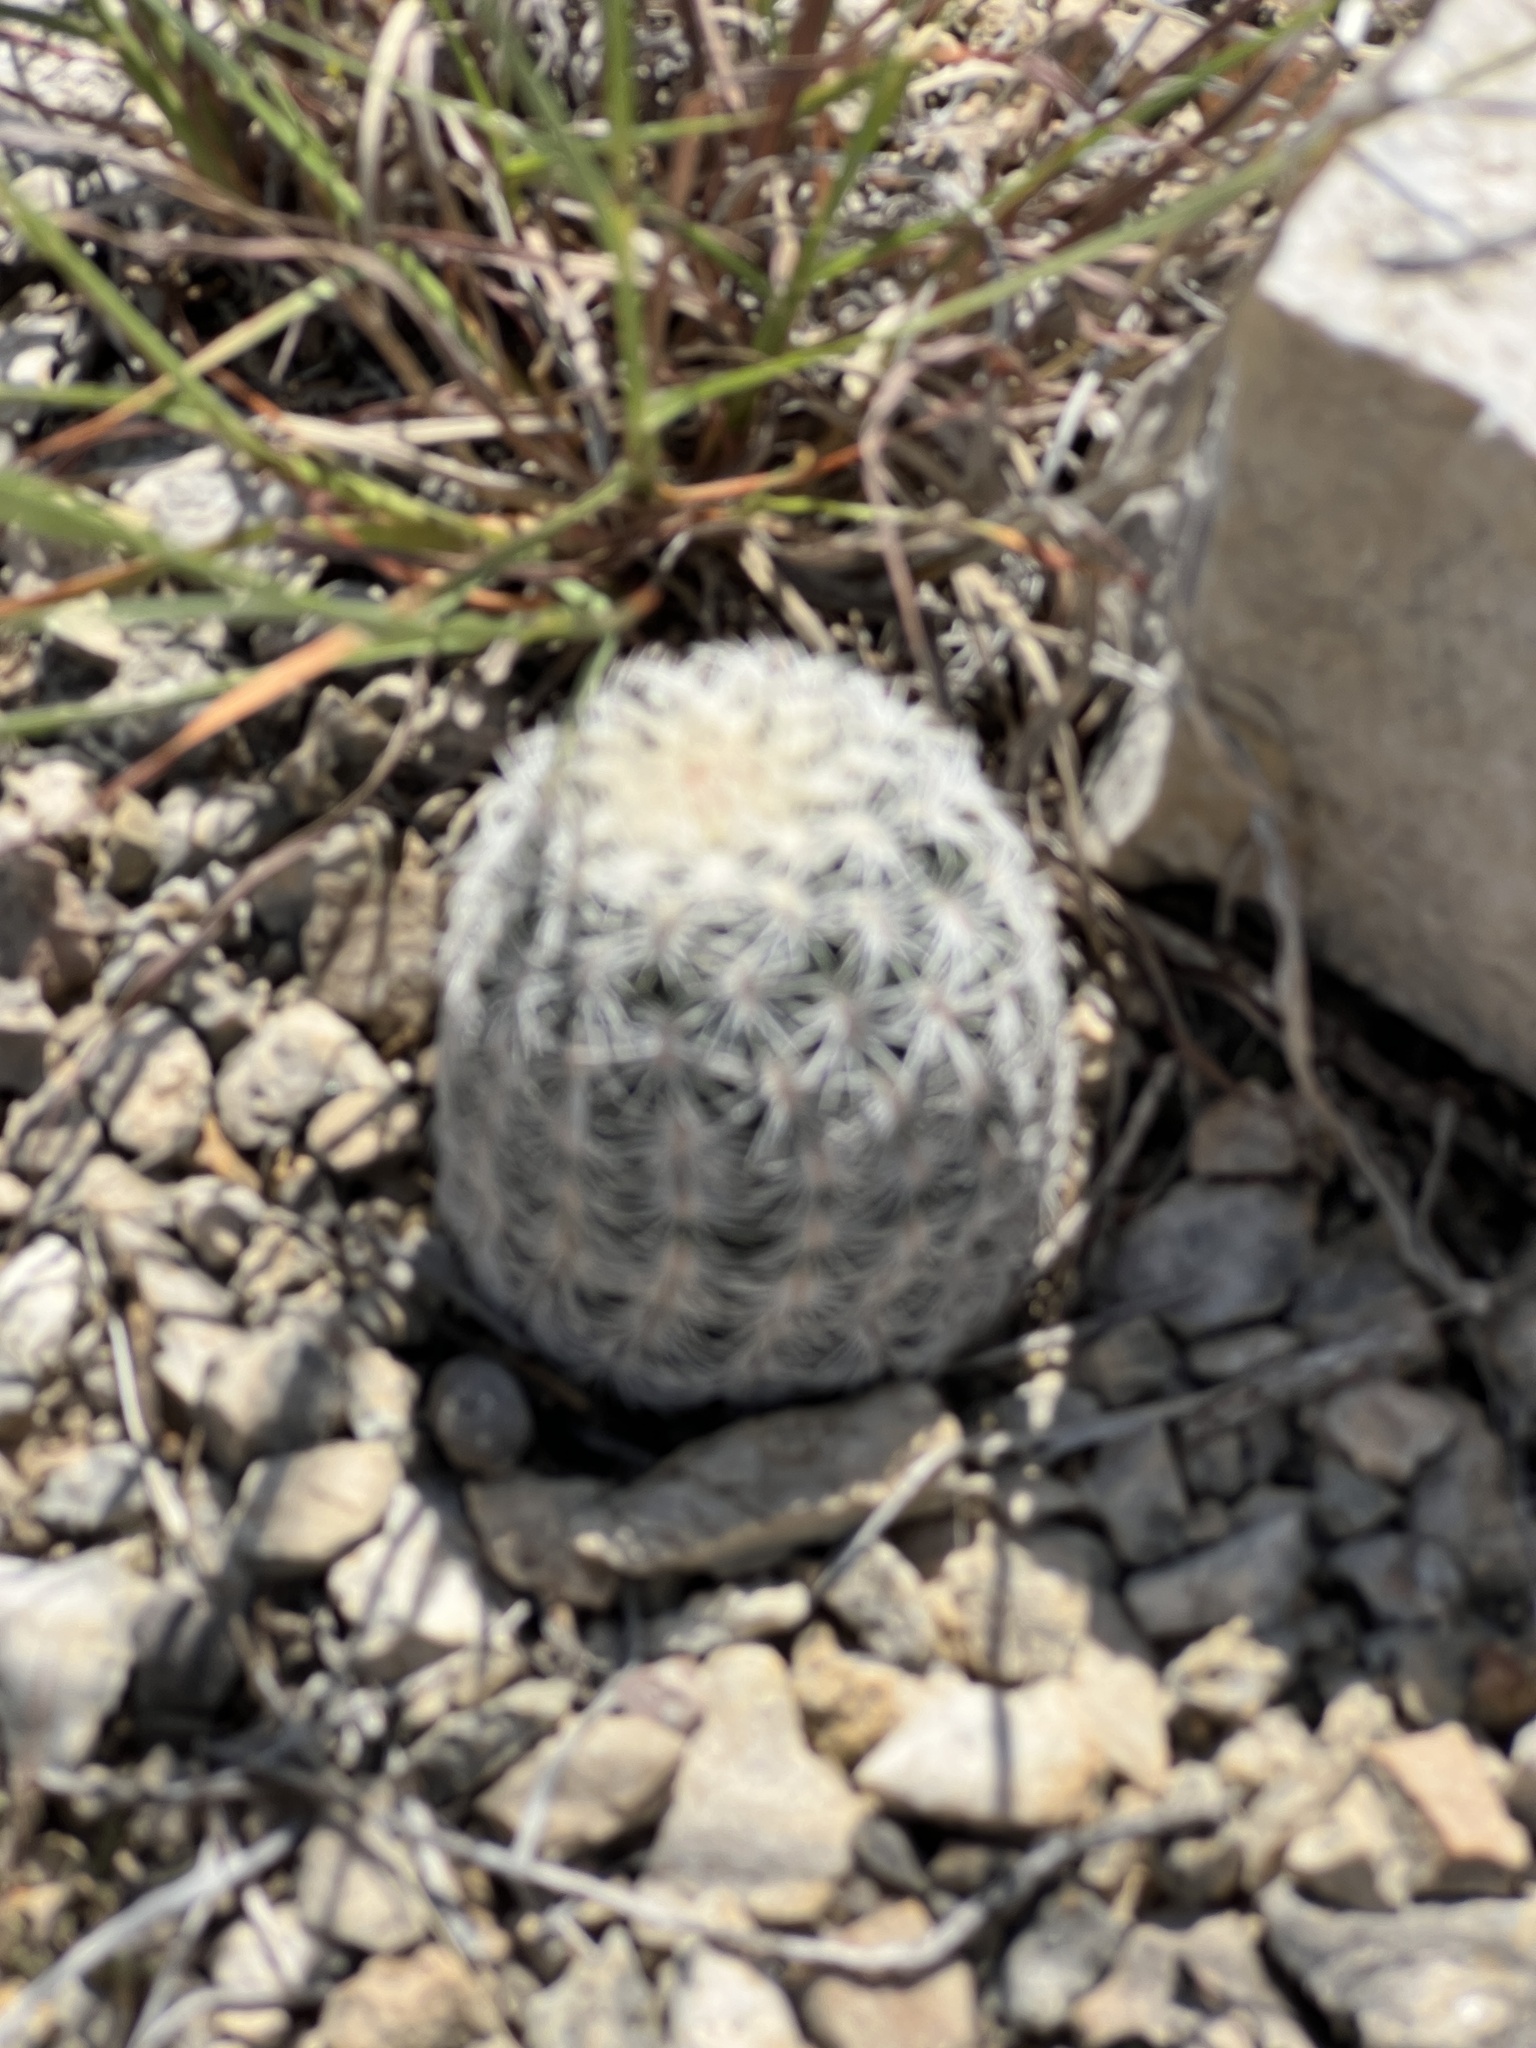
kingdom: Plantae
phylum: Tracheophyta
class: Magnoliopsida
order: Caryophyllales
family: Cactaceae
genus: Echinocereus
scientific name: Echinocereus reichenbachii
